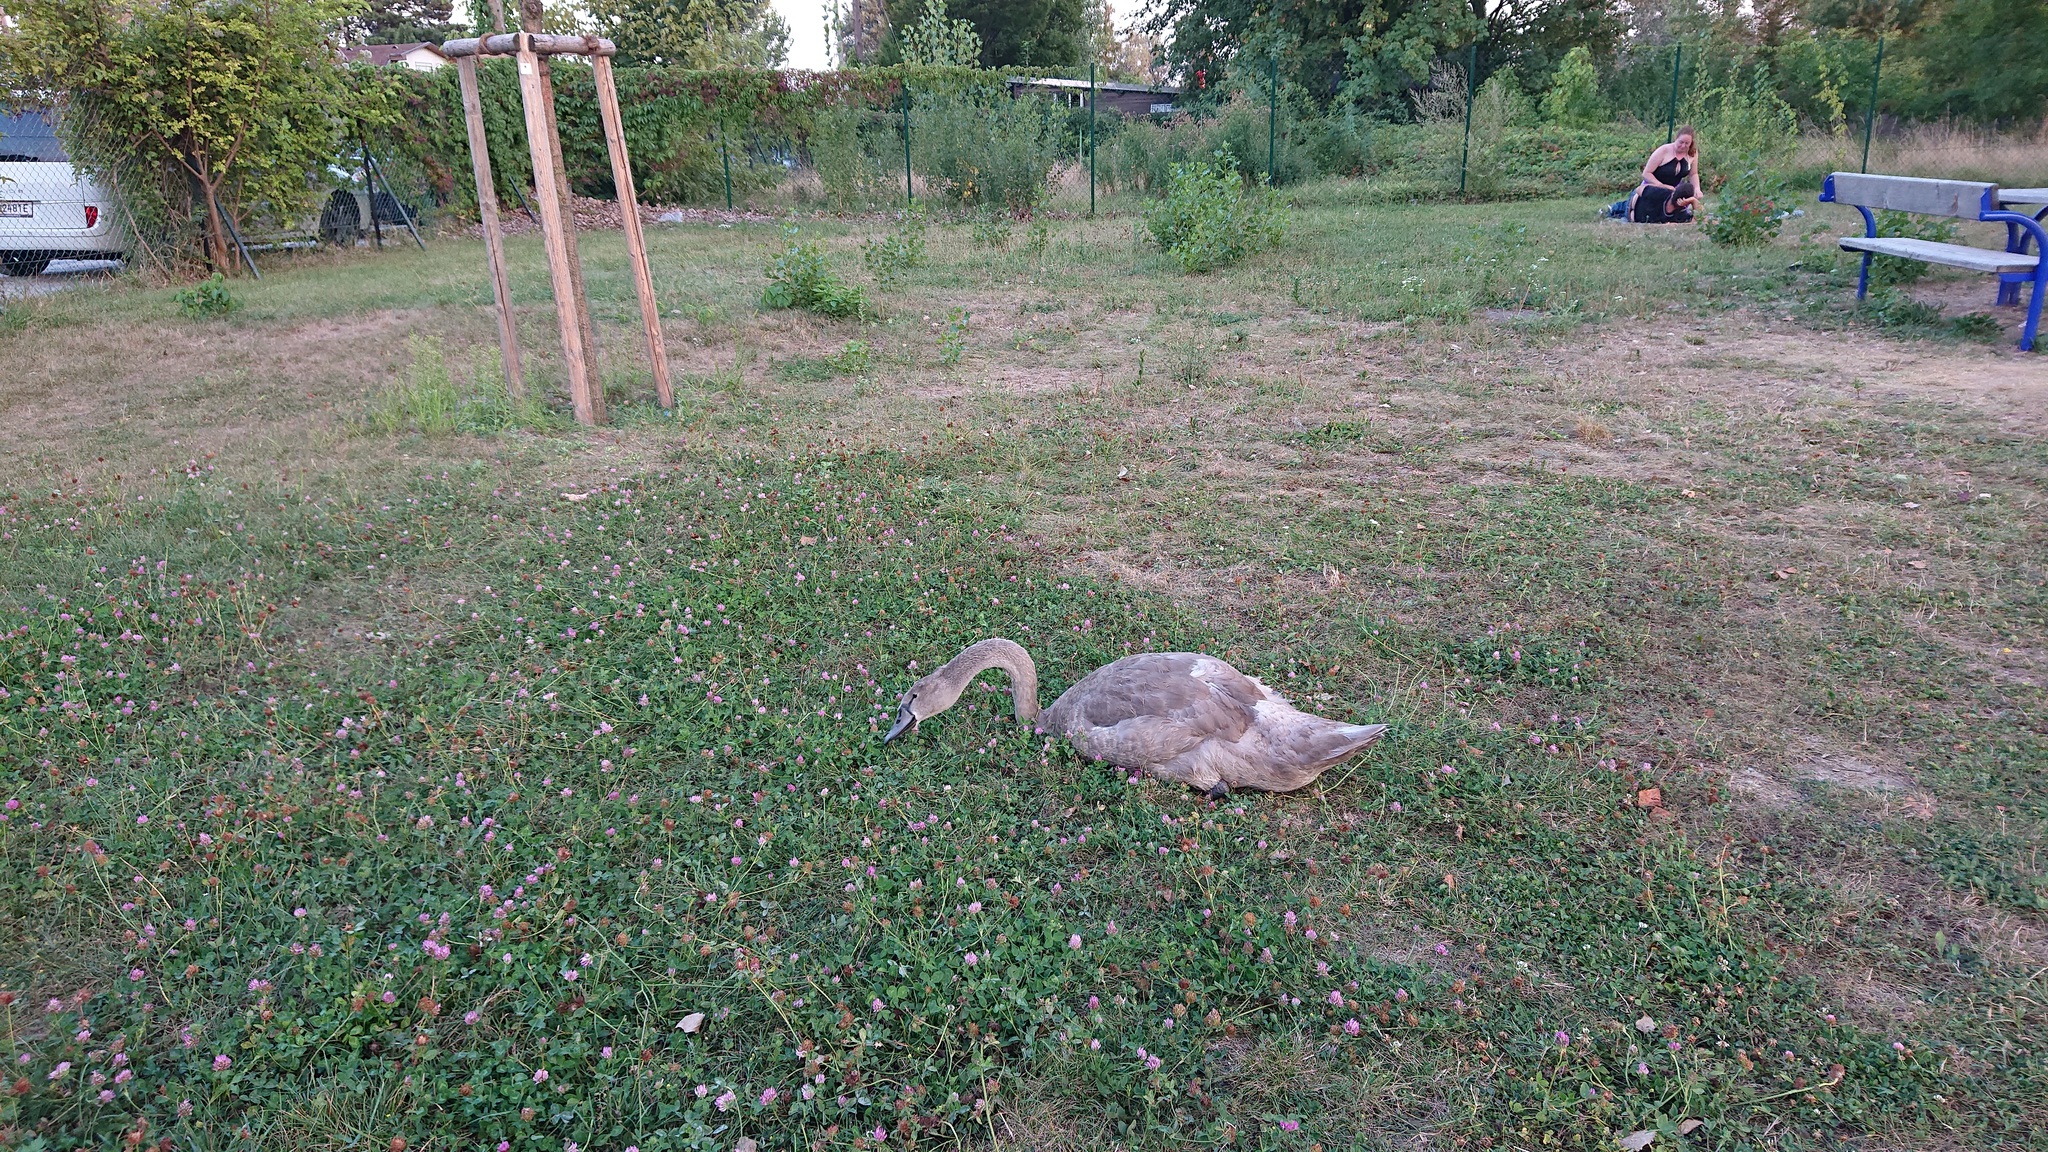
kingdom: Animalia
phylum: Chordata
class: Aves
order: Anseriformes
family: Anatidae
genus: Cygnus
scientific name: Cygnus olor
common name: Mute swan
